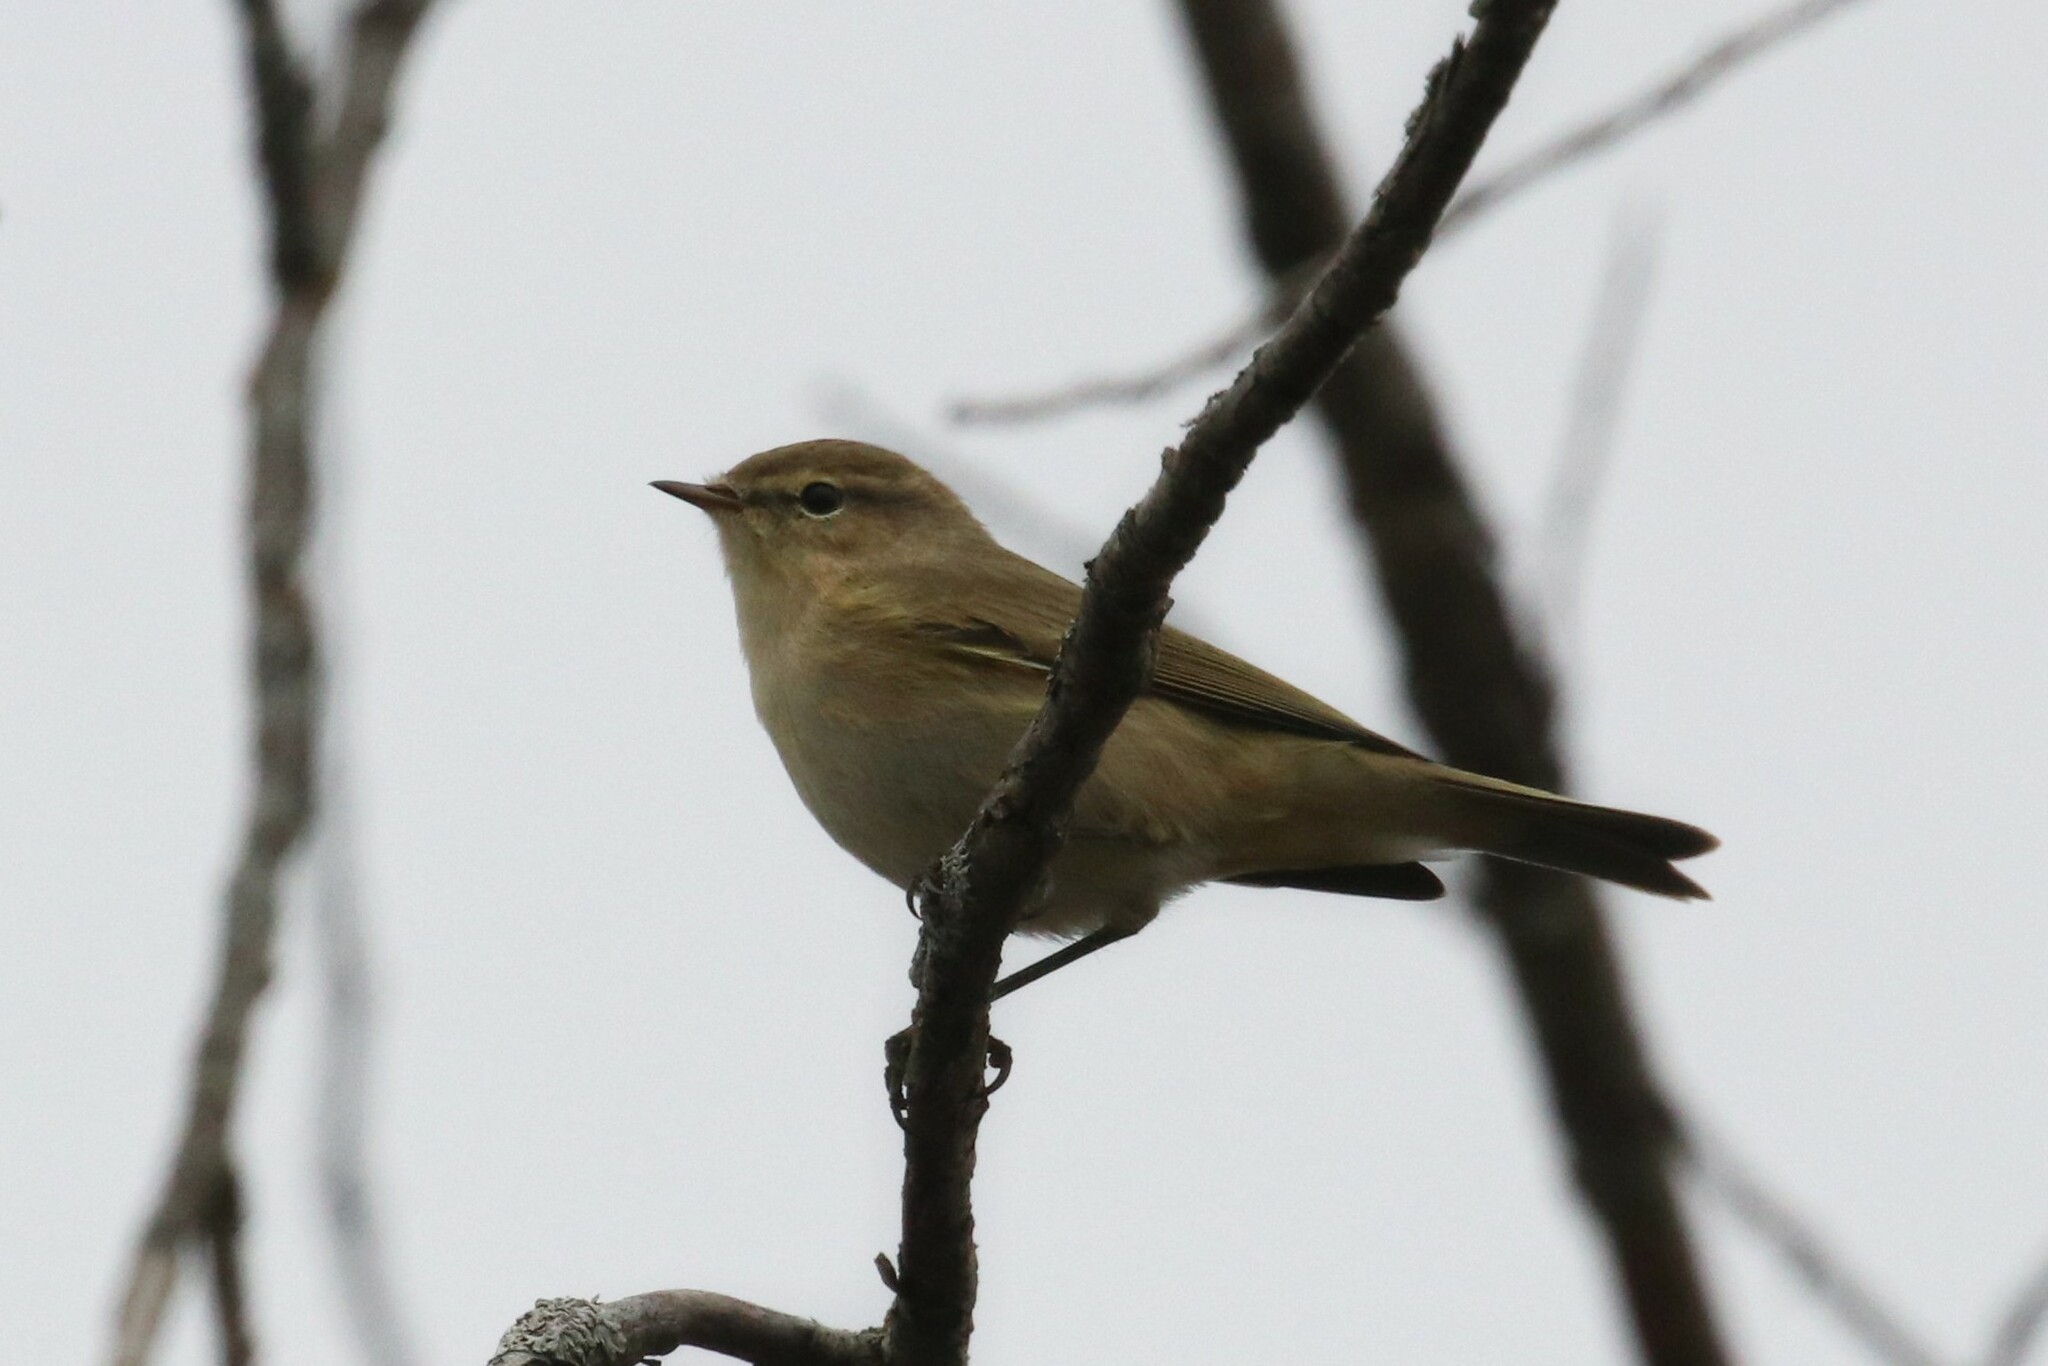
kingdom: Animalia
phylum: Chordata
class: Aves
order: Passeriformes
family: Phylloscopidae
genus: Phylloscopus
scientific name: Phylloscopus collybita
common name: Common chiffchaff
